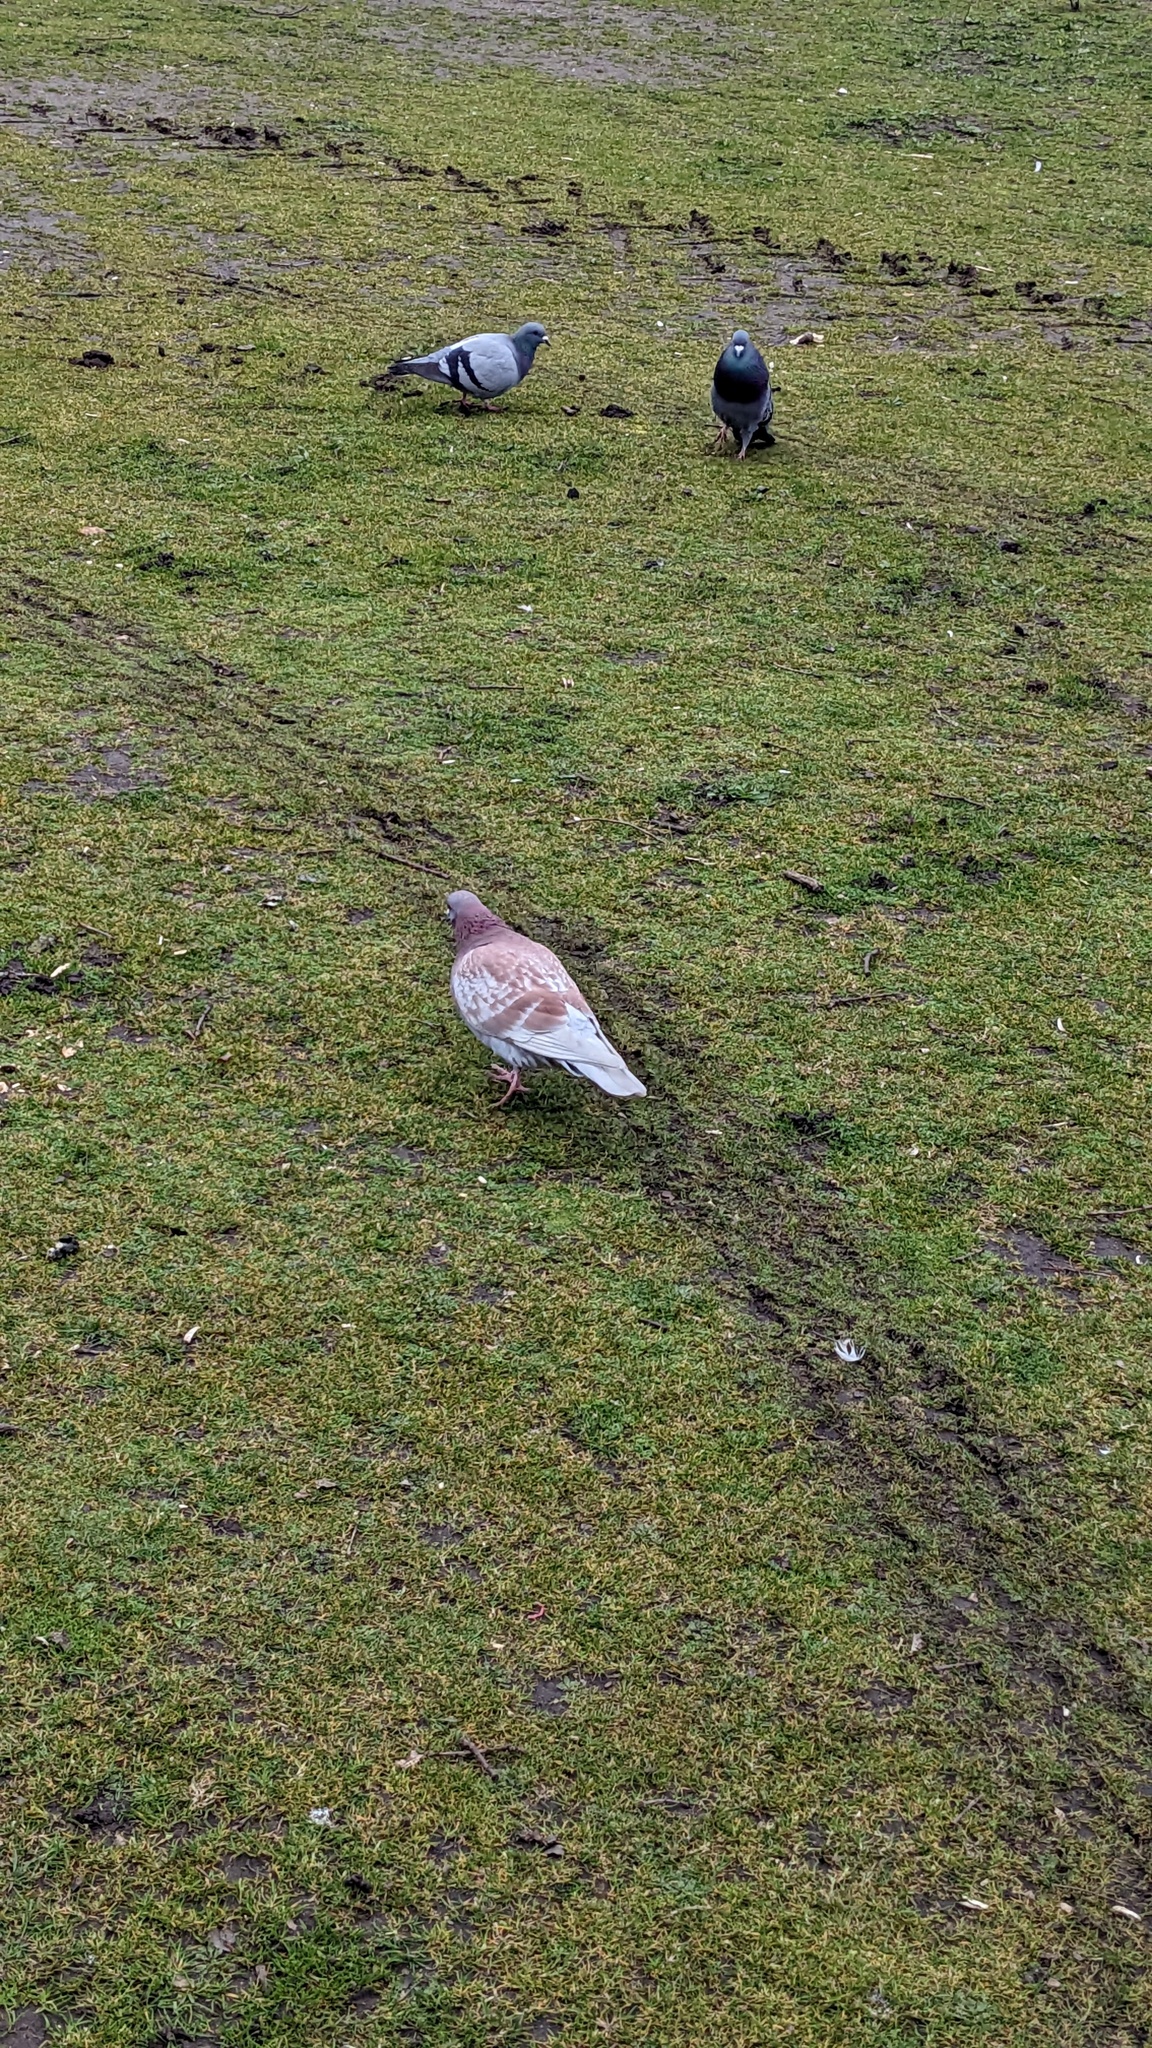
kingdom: Animalia
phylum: Chordata
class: Aves
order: Columbiformes
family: Columbidae
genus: Columba
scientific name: Columba livia
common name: Rock pigeon
